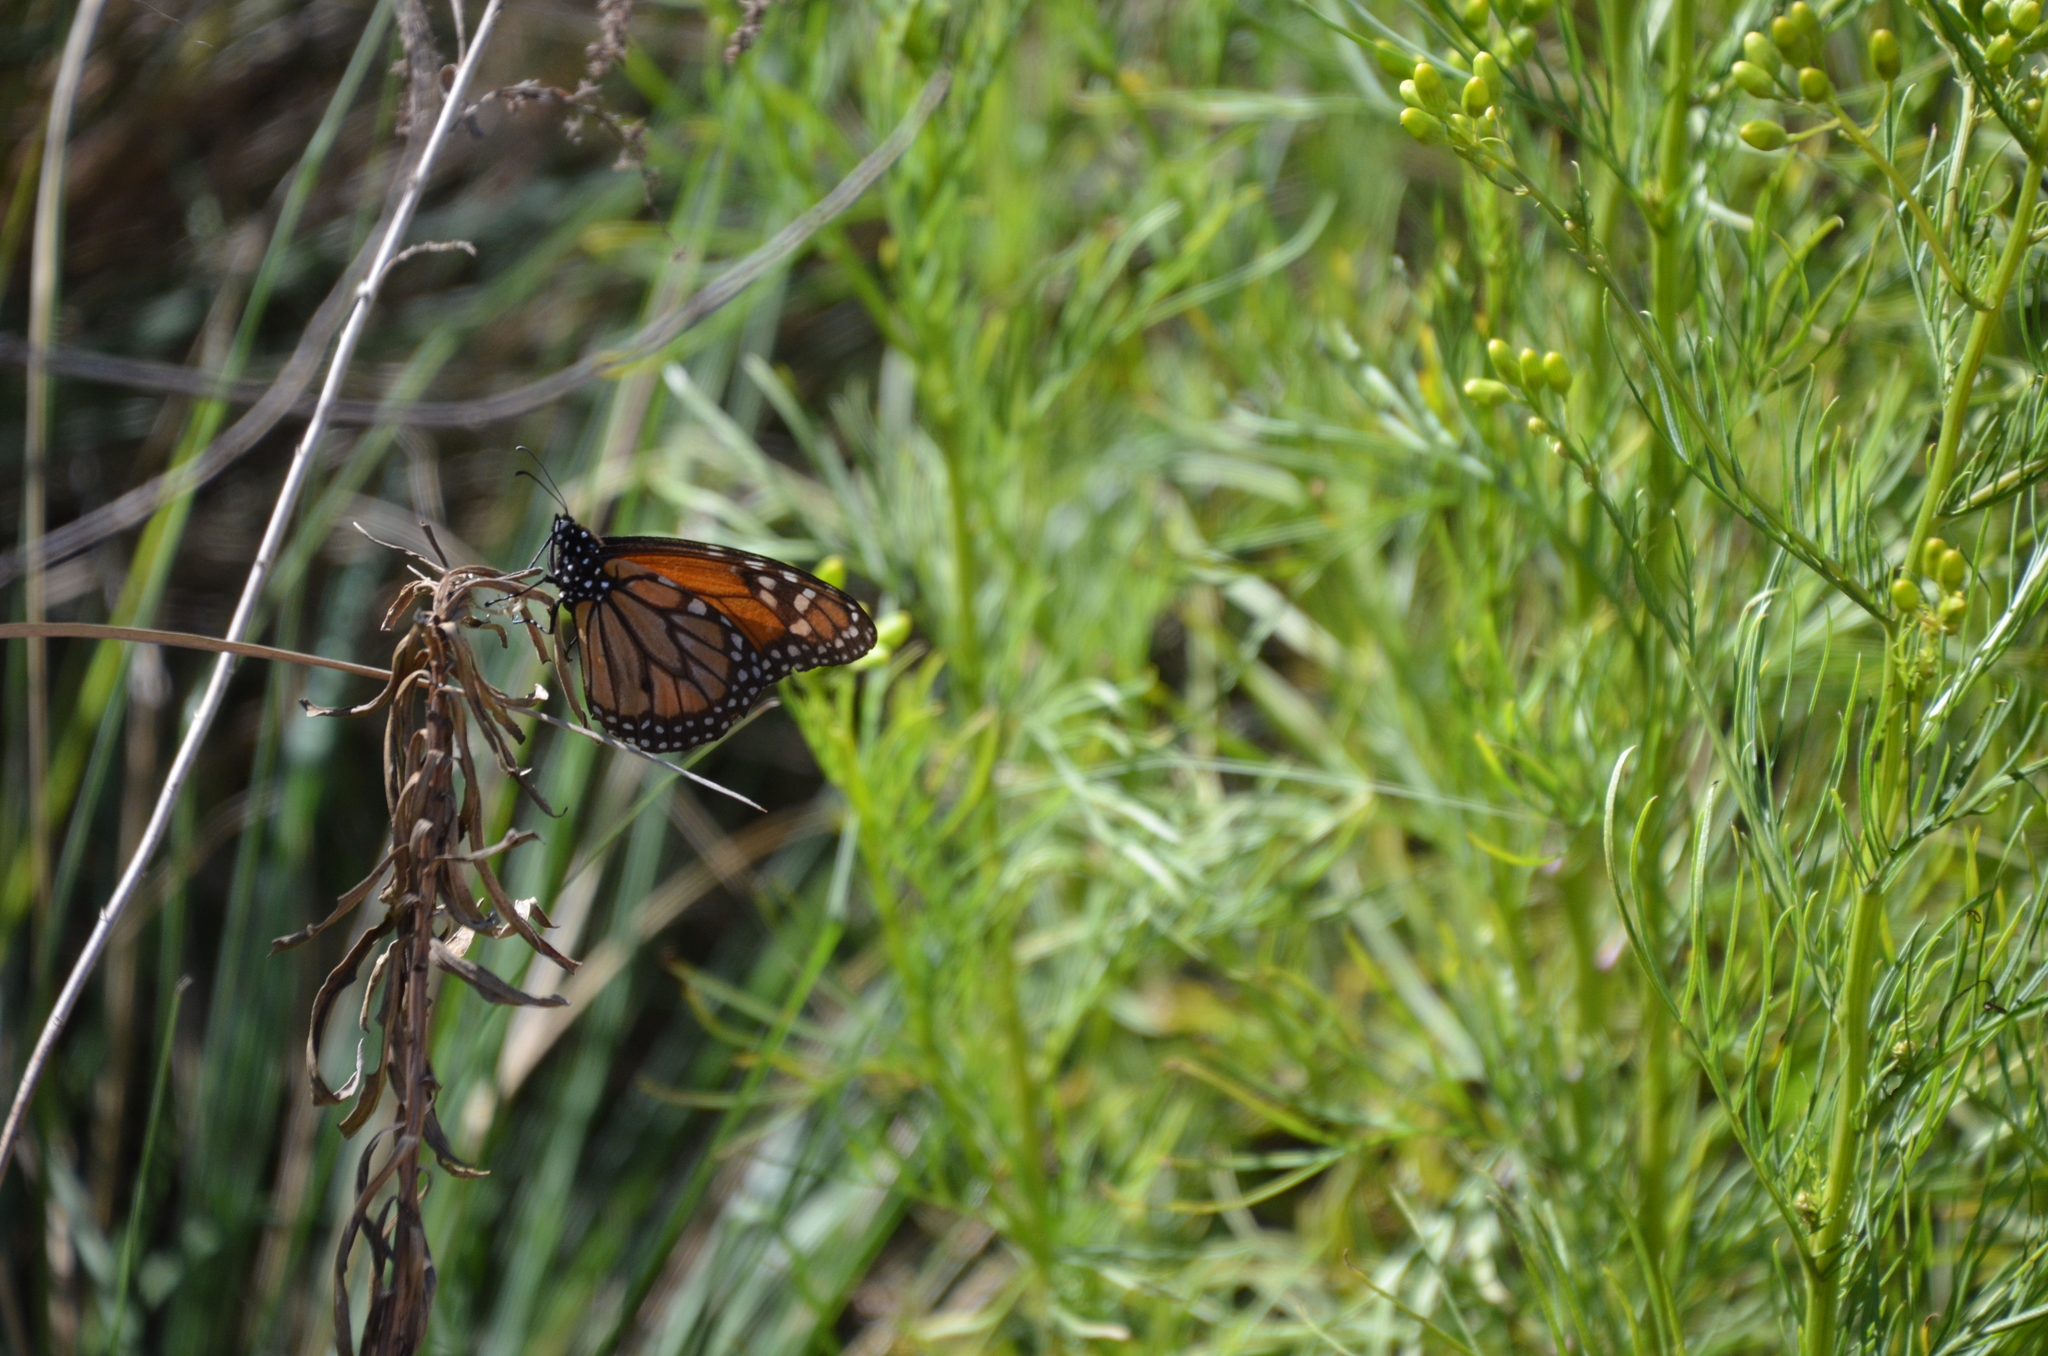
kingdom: Animalia
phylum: Arthropoda
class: Insecta
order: Lepidoptera
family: Nymphalidae
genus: Danaus
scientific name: Danaus erippus
